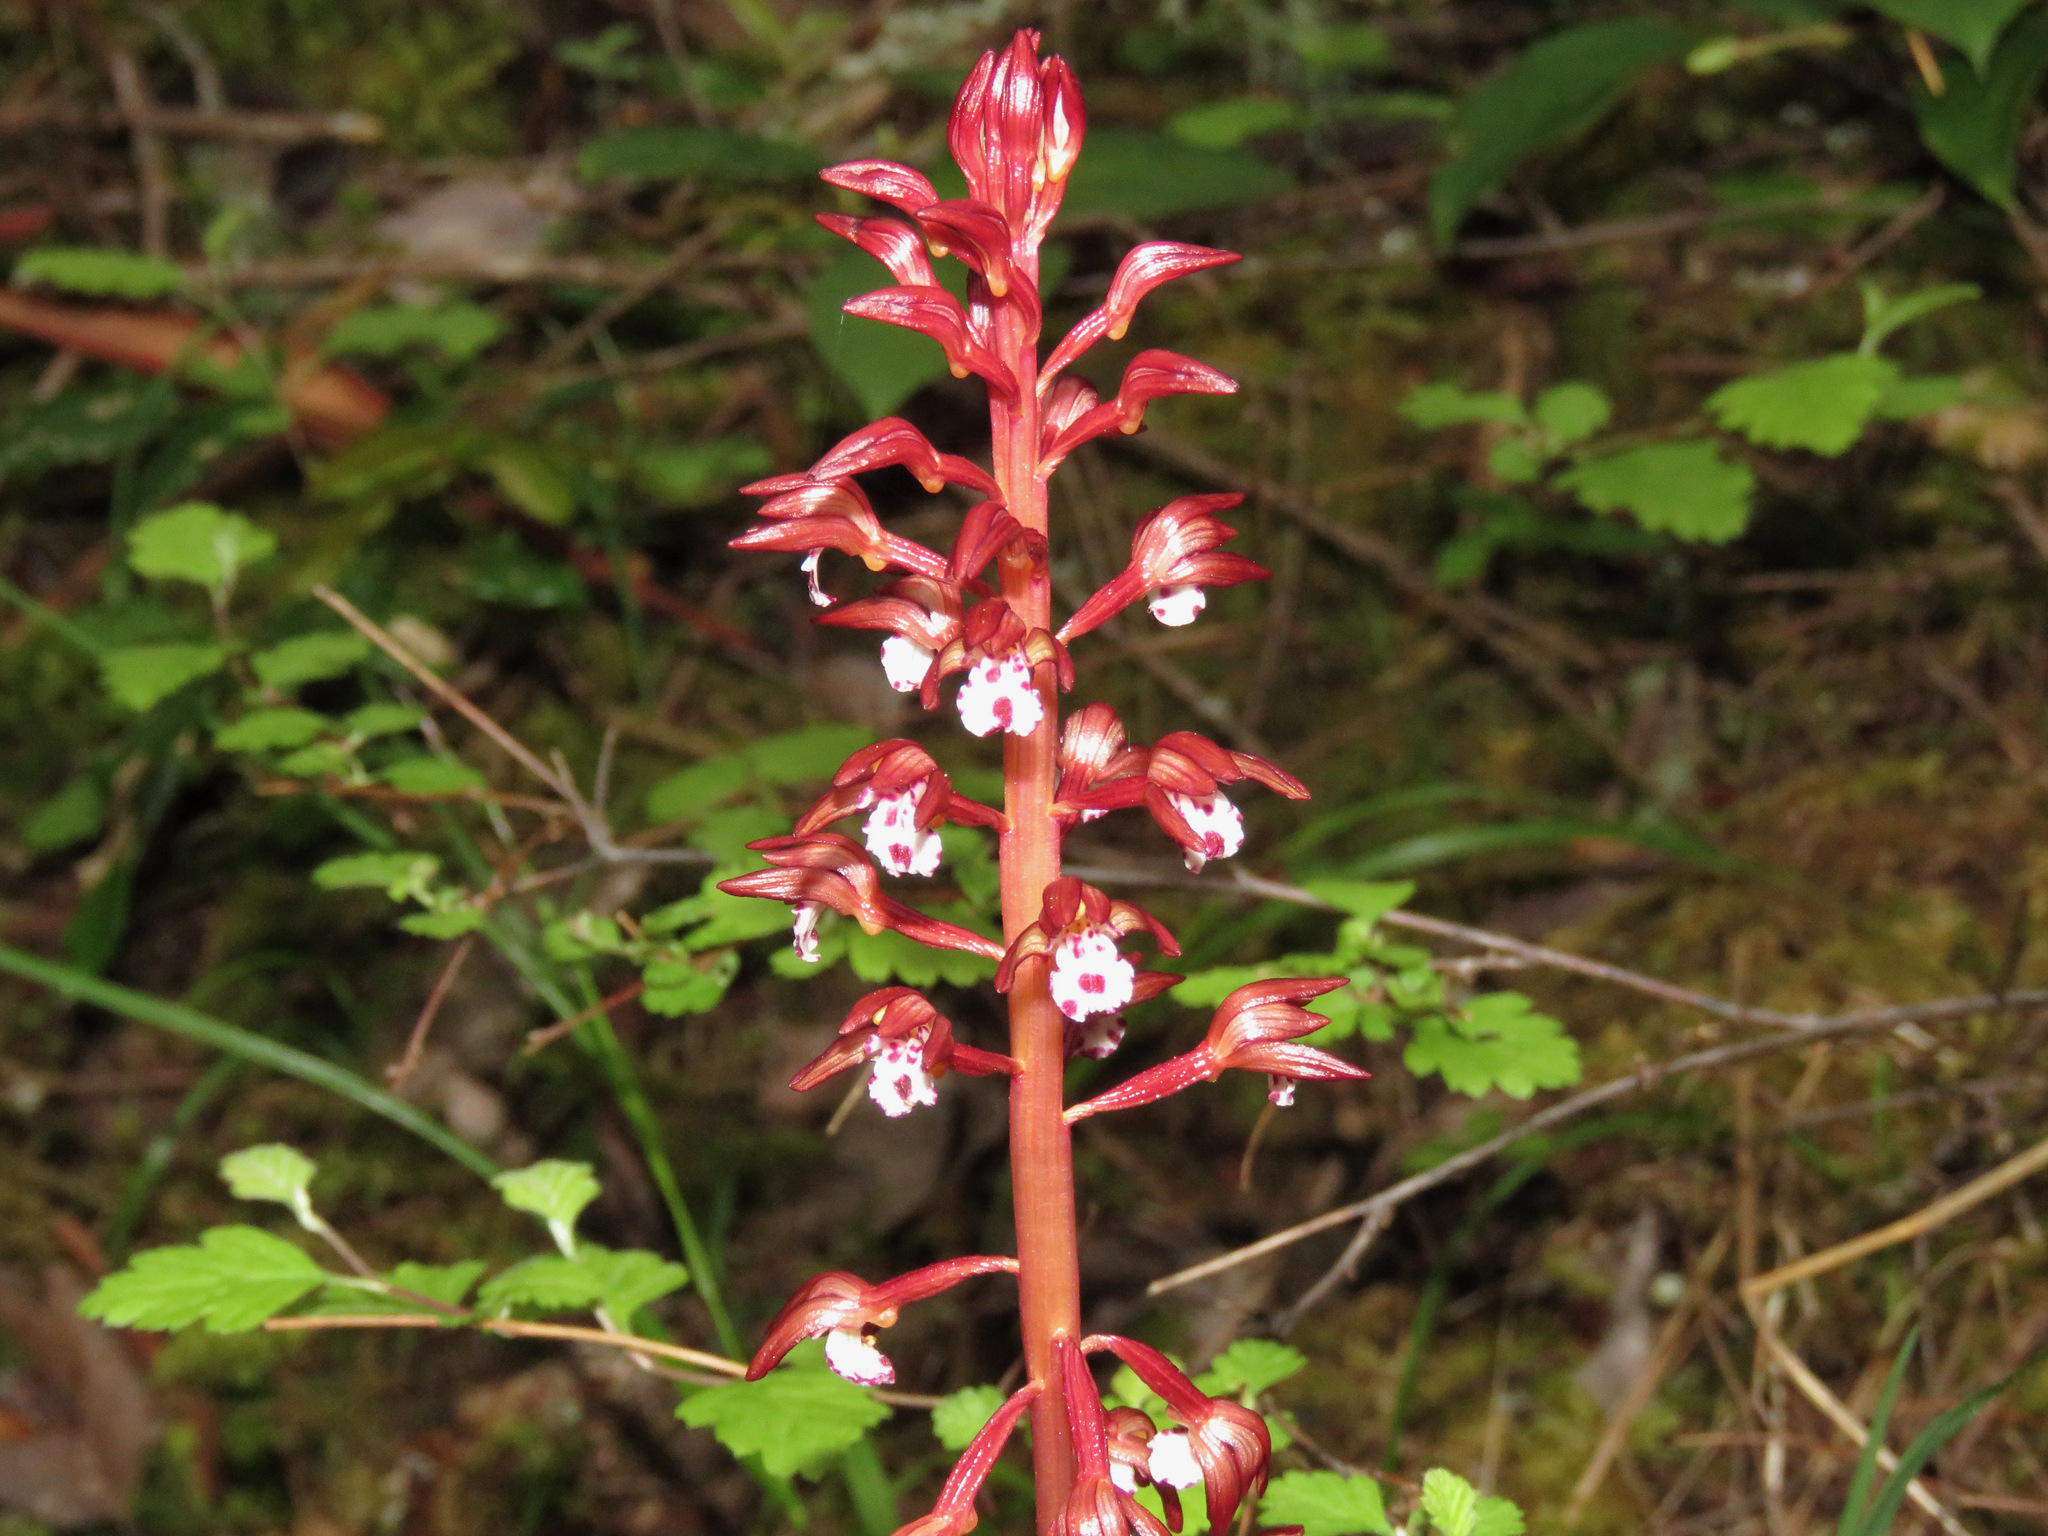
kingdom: Plantae
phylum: Tracheophyta
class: Liliopsida
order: Asparagales
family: Orchidaceae
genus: Corallorhiza
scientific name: Corallorhiza maculata
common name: Spotted coralroot
